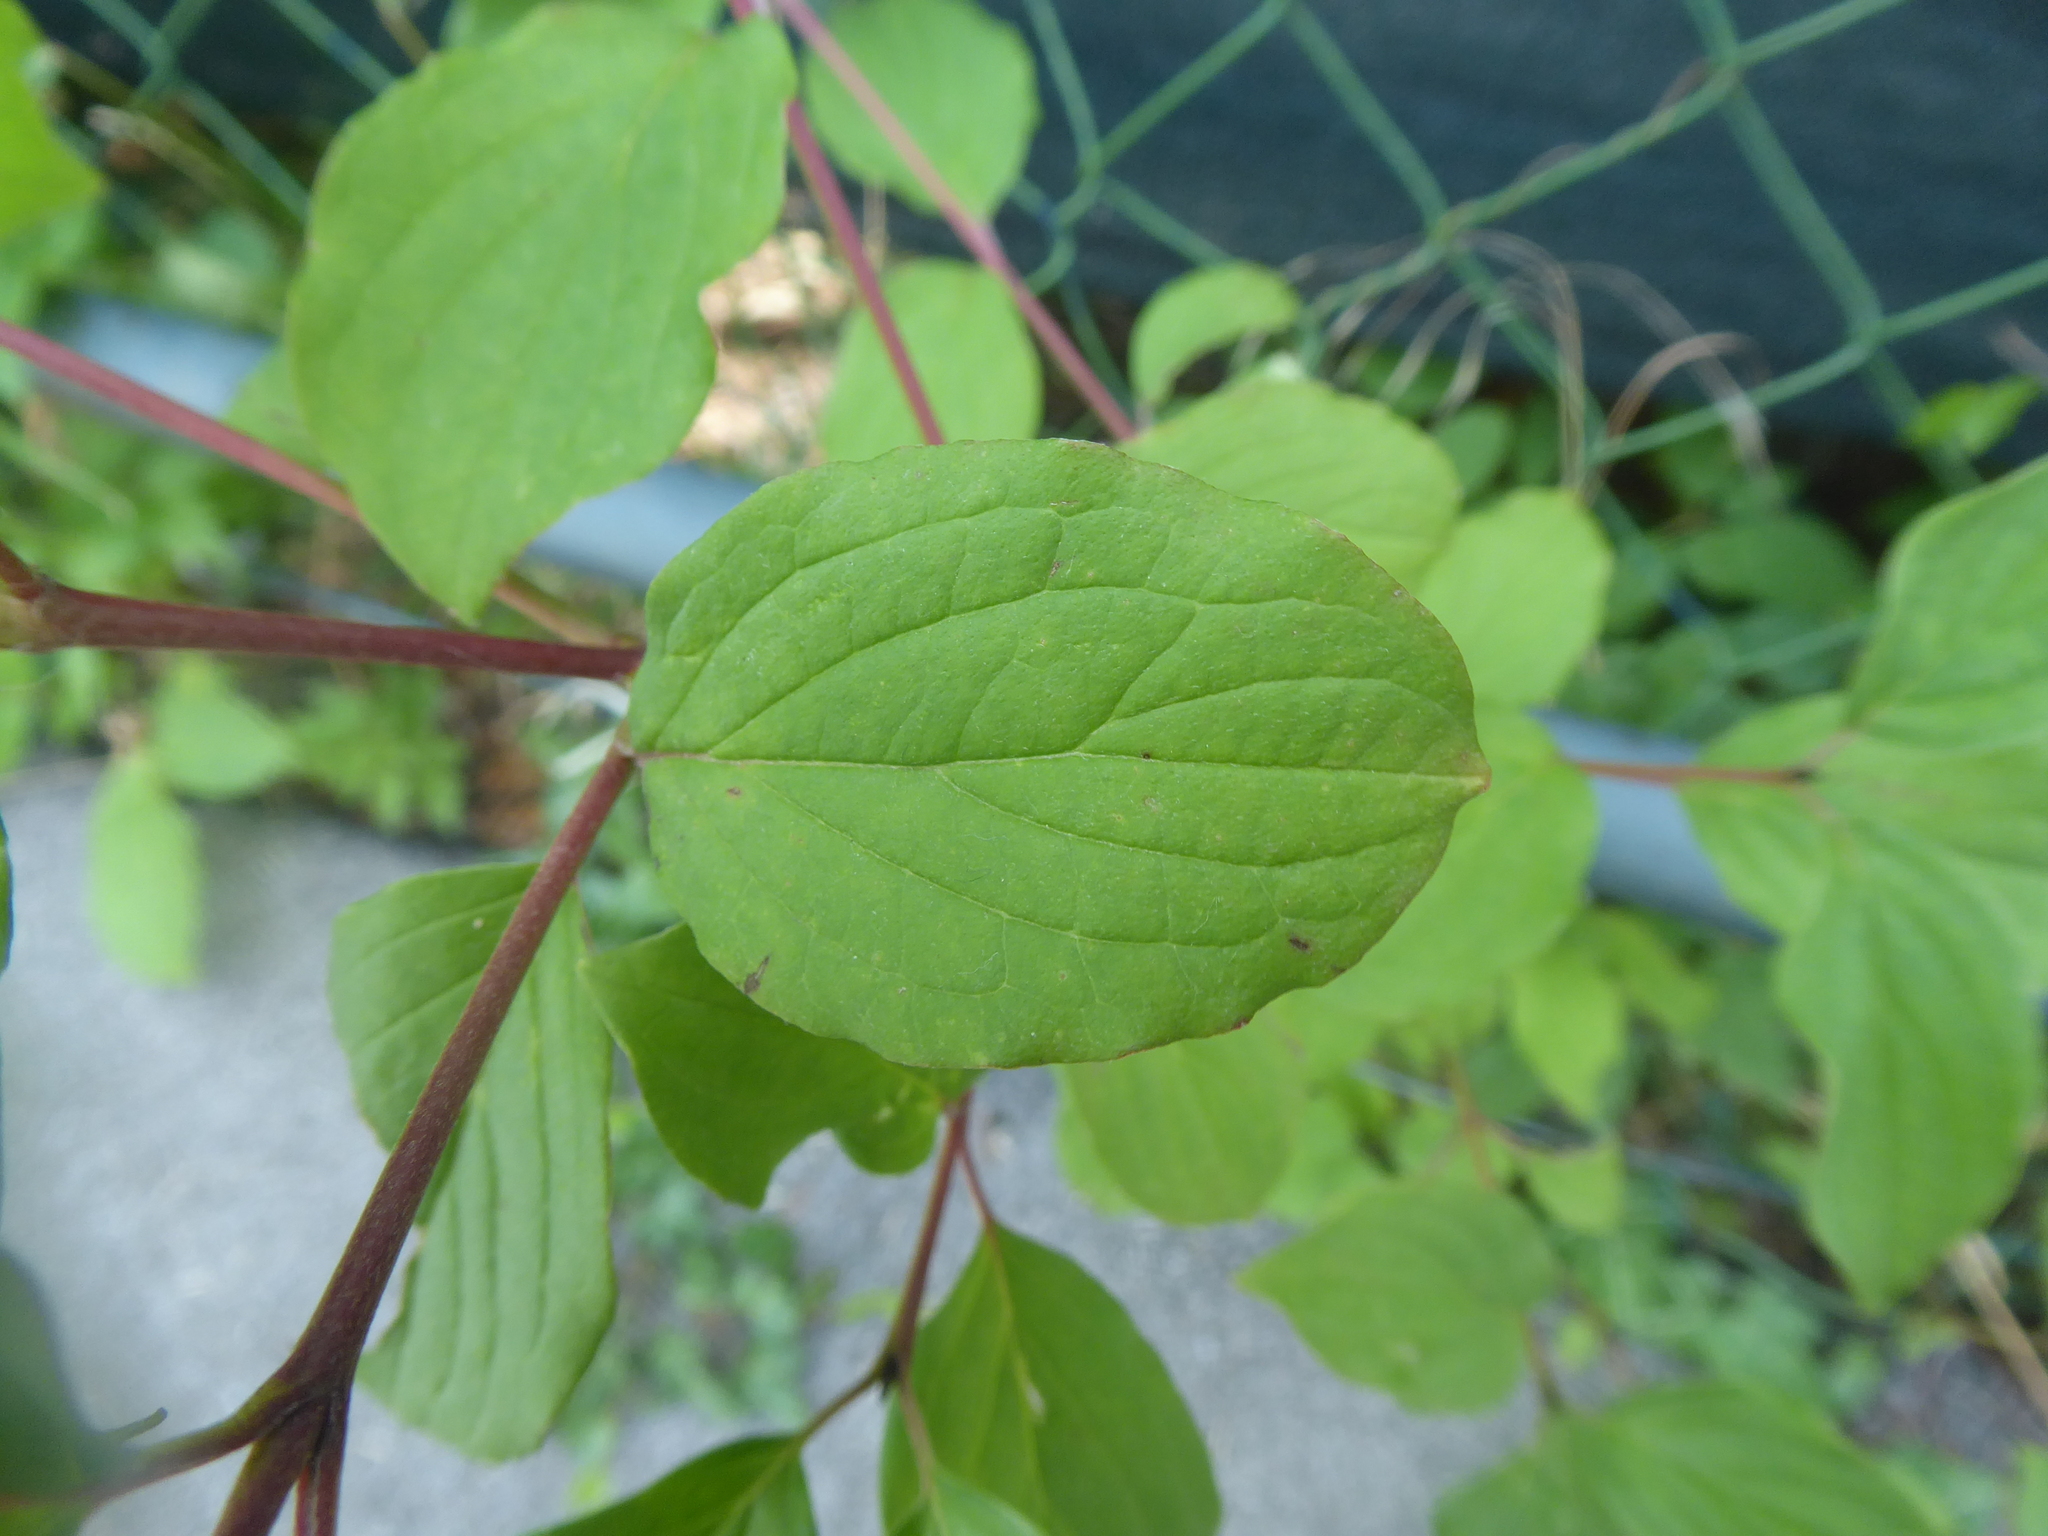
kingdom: Plantae
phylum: Tracheophyta
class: Magnoliopsida
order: Cornales
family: Cornaceae
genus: Cornus
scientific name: Cornus sanguinea
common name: Dogwood
